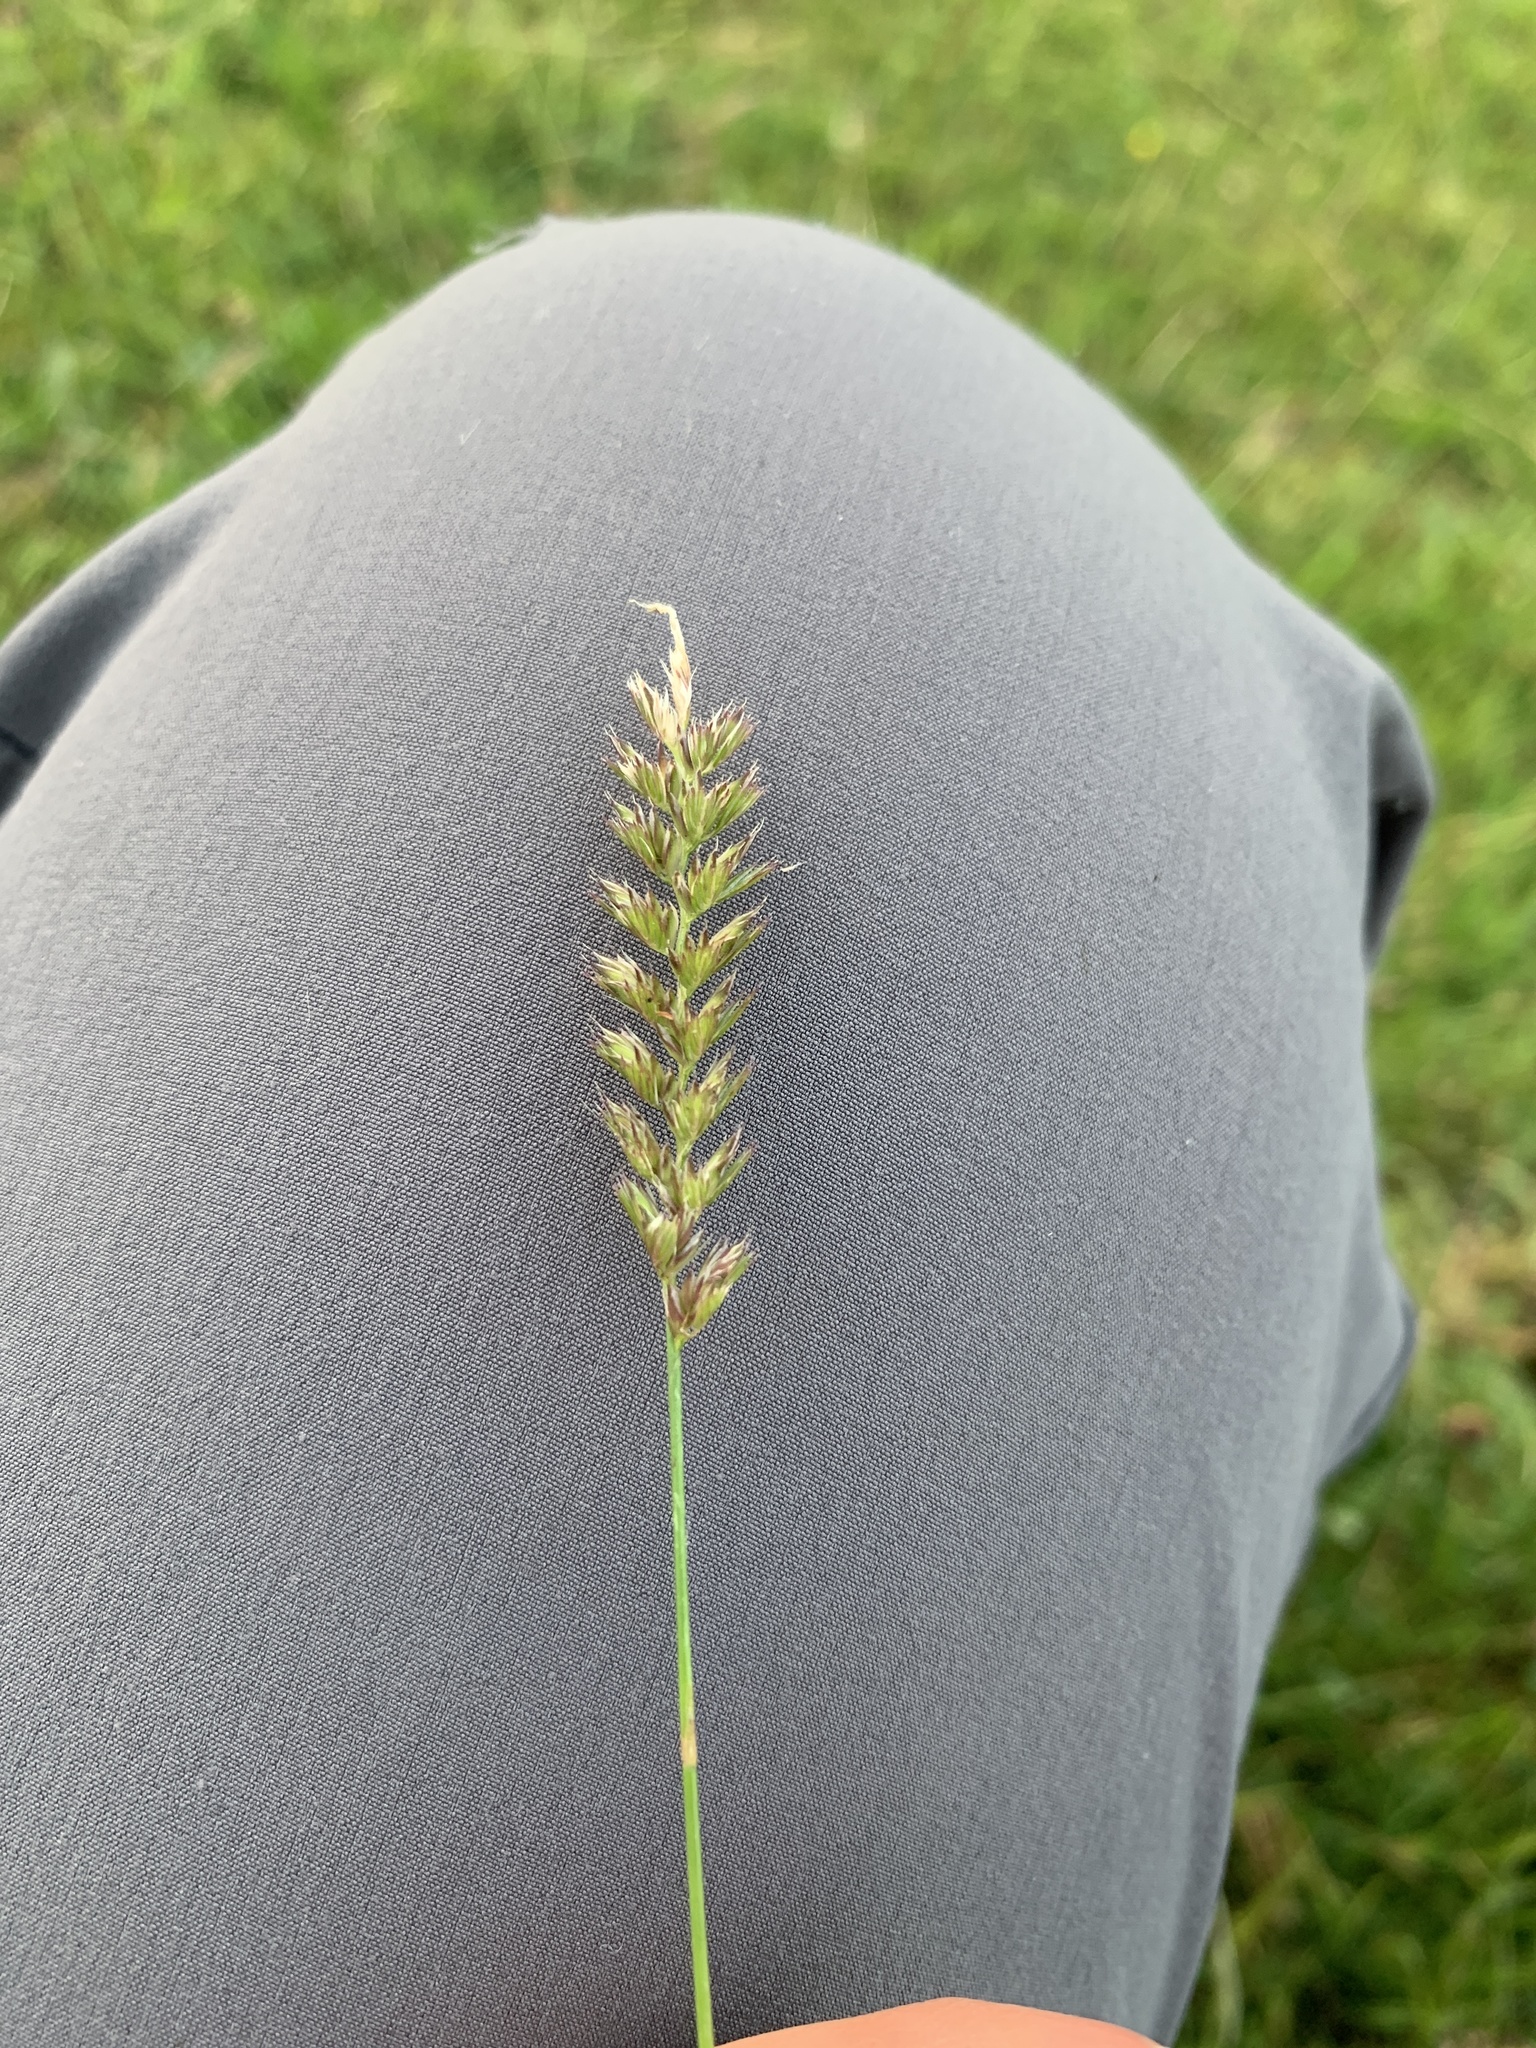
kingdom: Plantae
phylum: Tracheophyta
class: Liliopsida
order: Poales
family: Poaceae
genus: Cynosurus
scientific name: Cynosurus cristatus
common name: Crested dog's-tail
